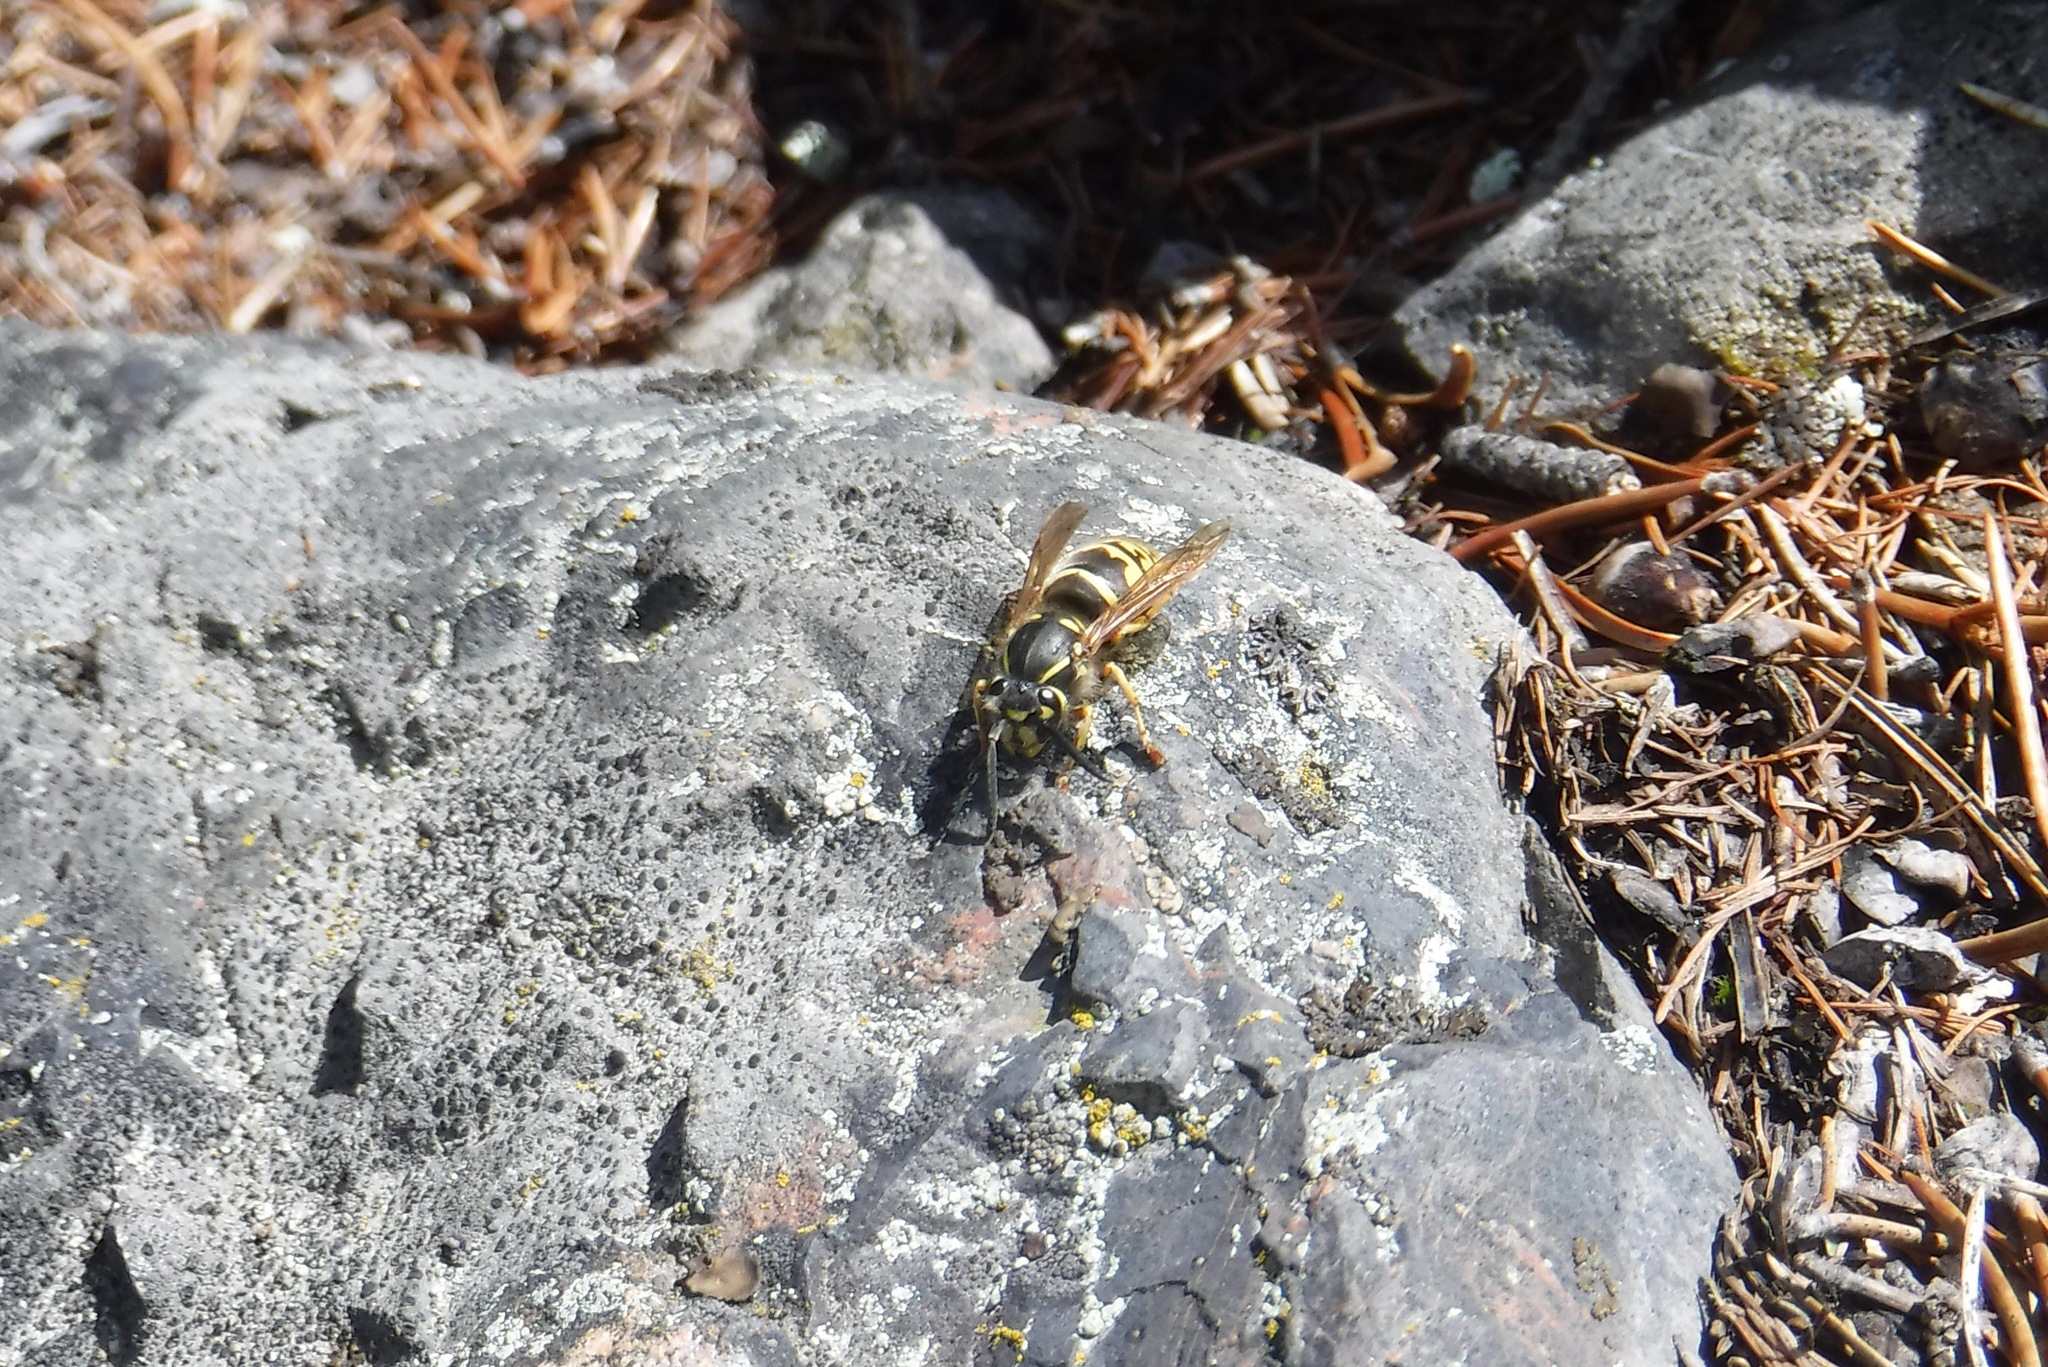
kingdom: Animalia
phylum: Arthropoda
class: Insecta
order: Hymenoptera
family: Vespidae
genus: Vespula
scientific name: Vespula alascensis
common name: Alaska yellowjacket
